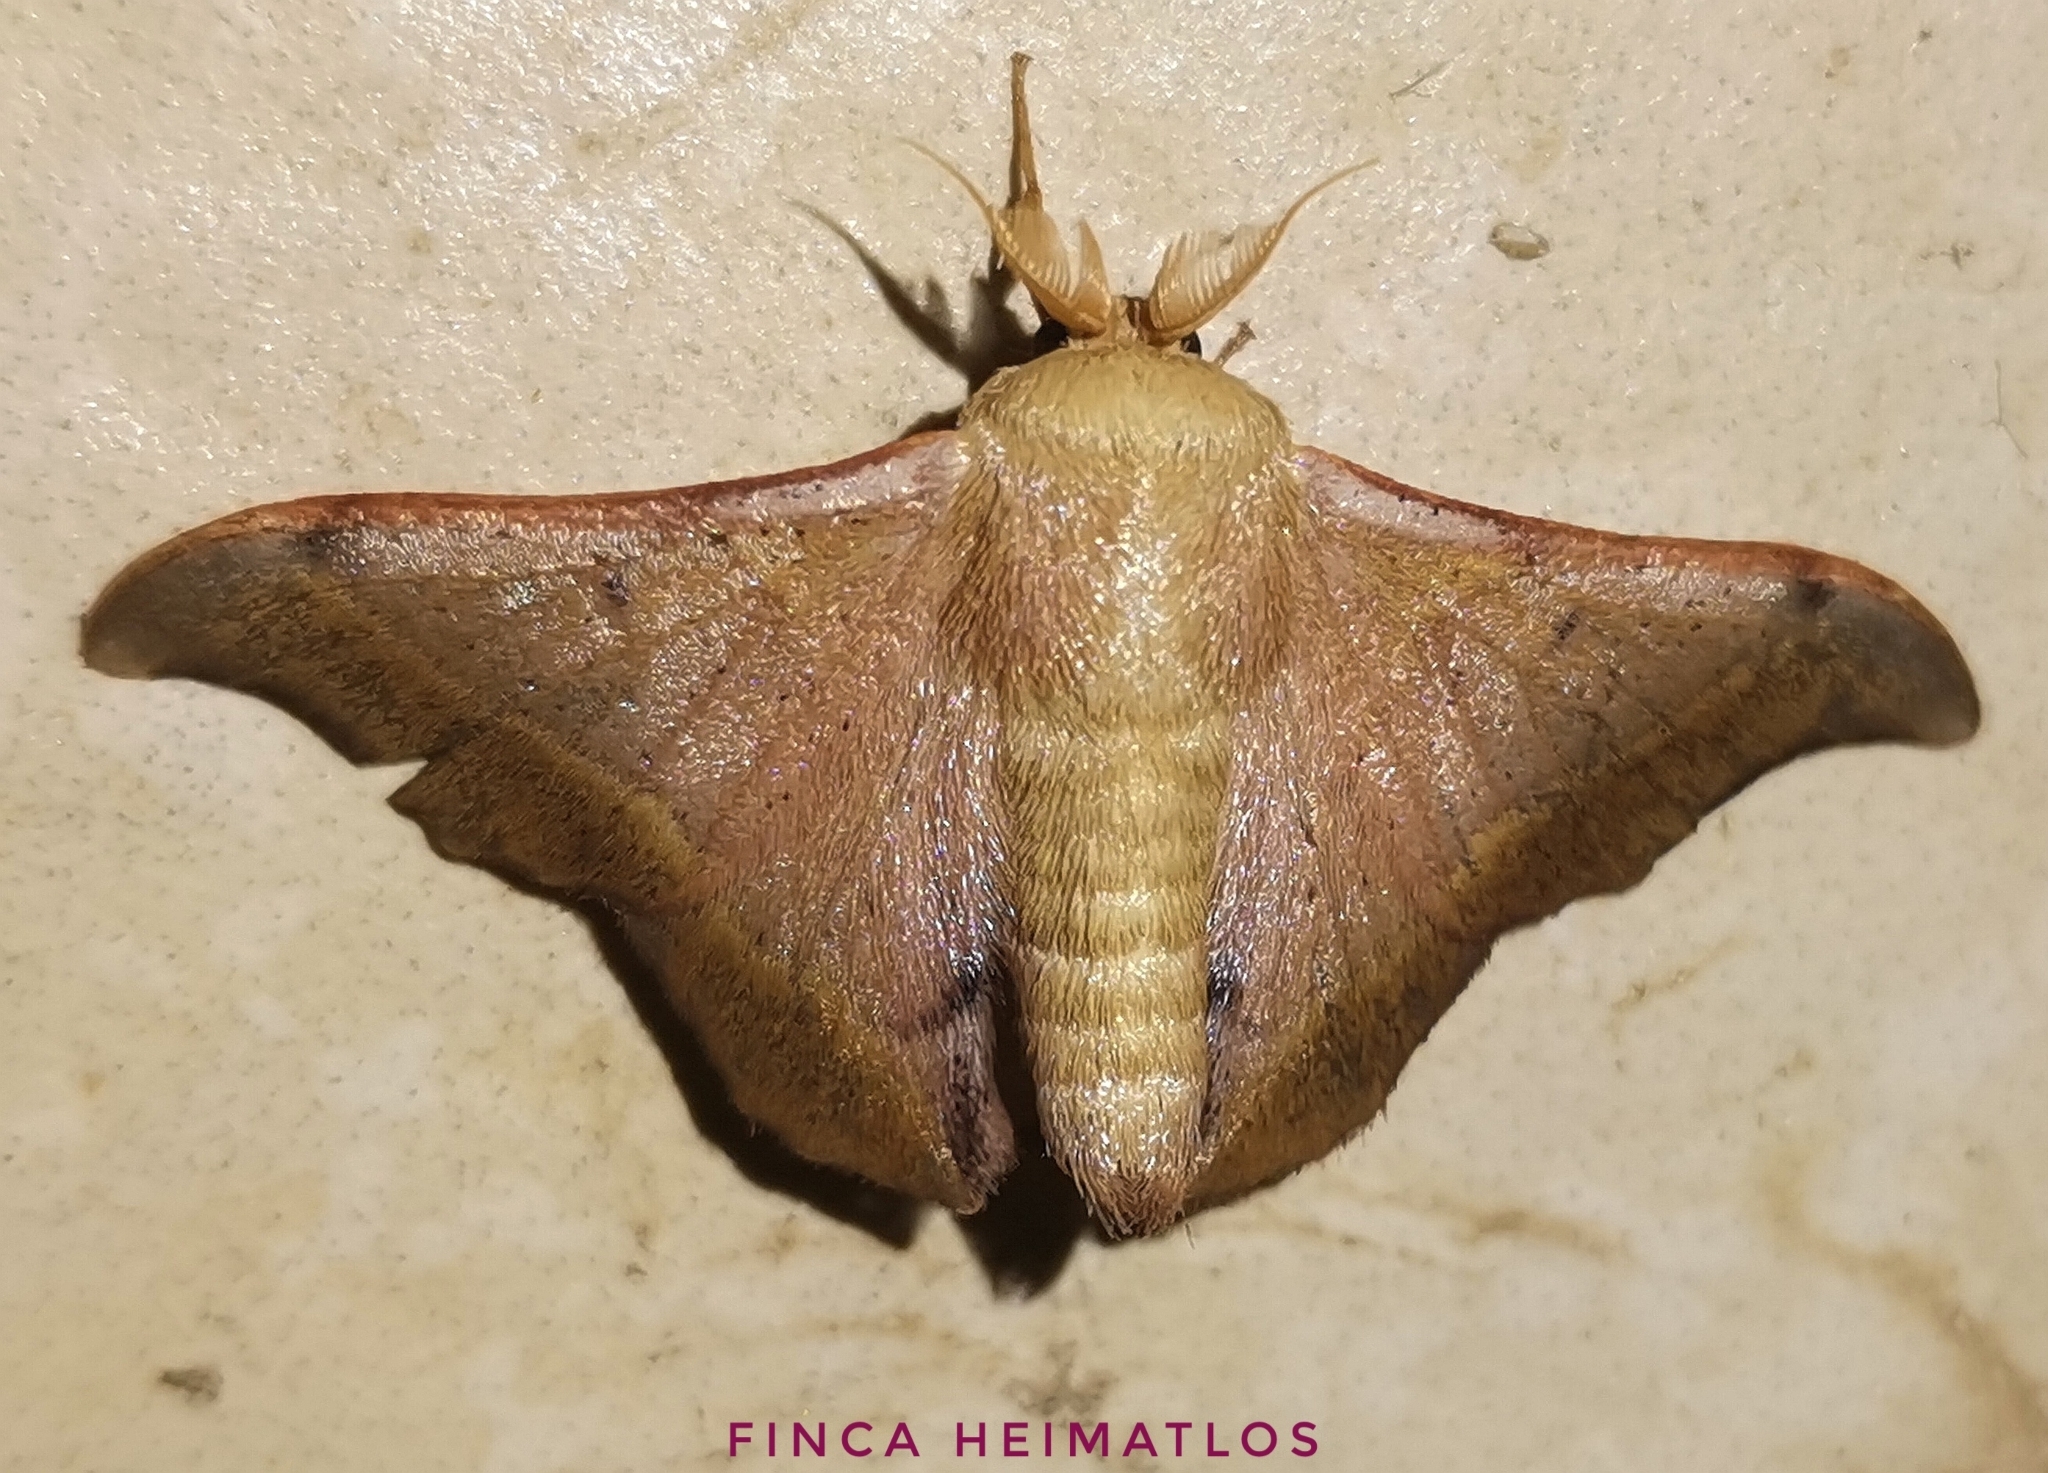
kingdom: Animalia
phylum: Arthropoda
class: Insecta
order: Lepidoptera
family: Mimallonidae
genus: Lacosoma
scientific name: Lacosoma oyapoca
